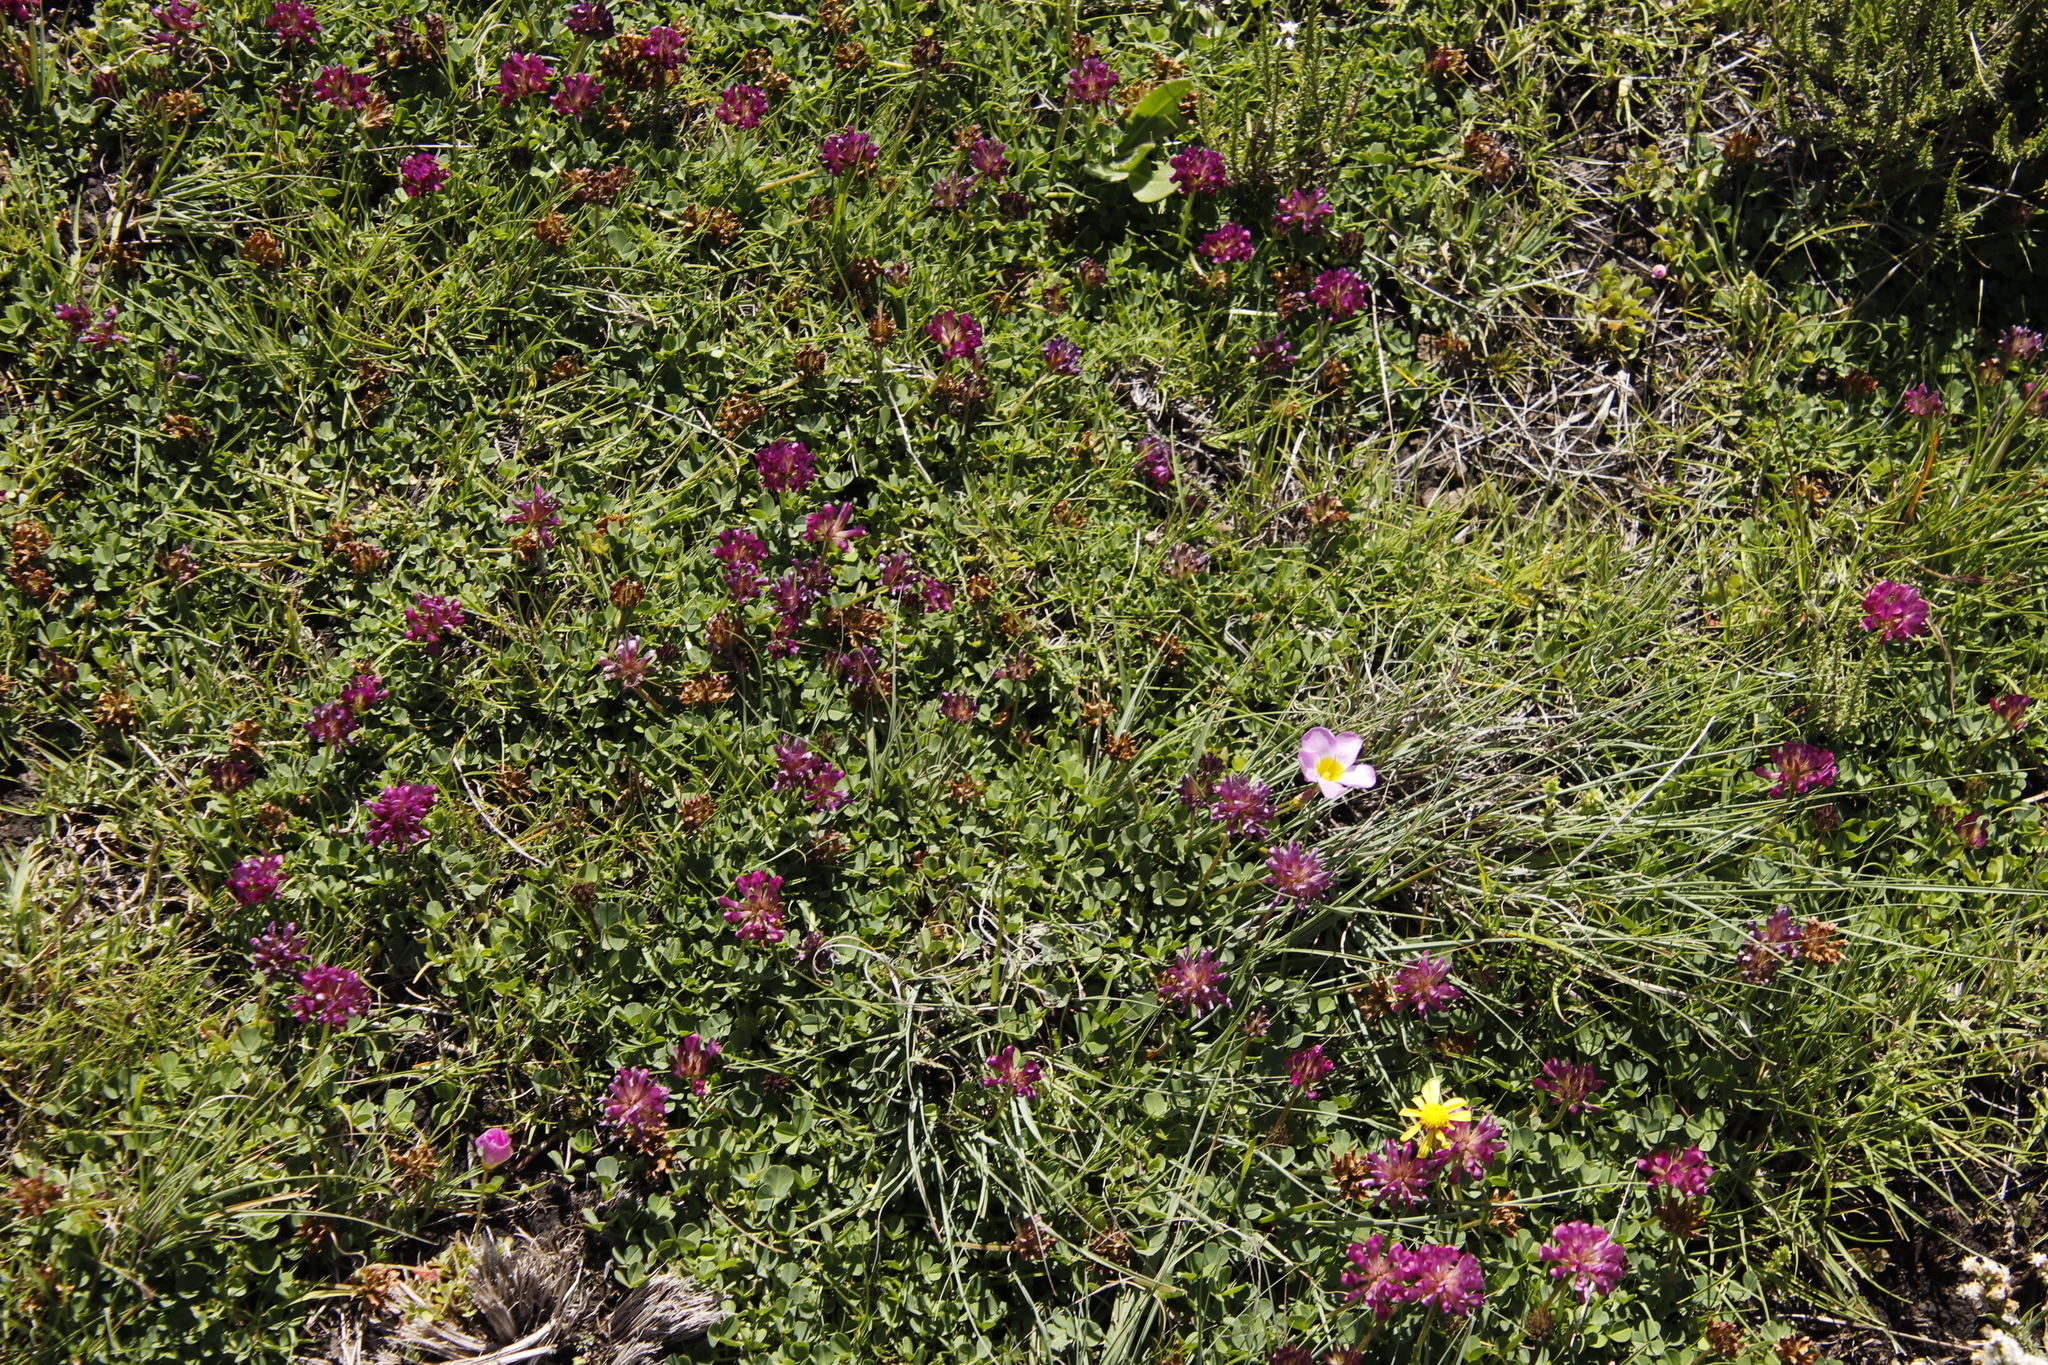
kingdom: Plantae
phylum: Tracheophyta
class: Magnoliopsida
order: Fabales
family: Fabaceae
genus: Trifolium
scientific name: Trifolium burchellianum
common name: Burchell's clover
